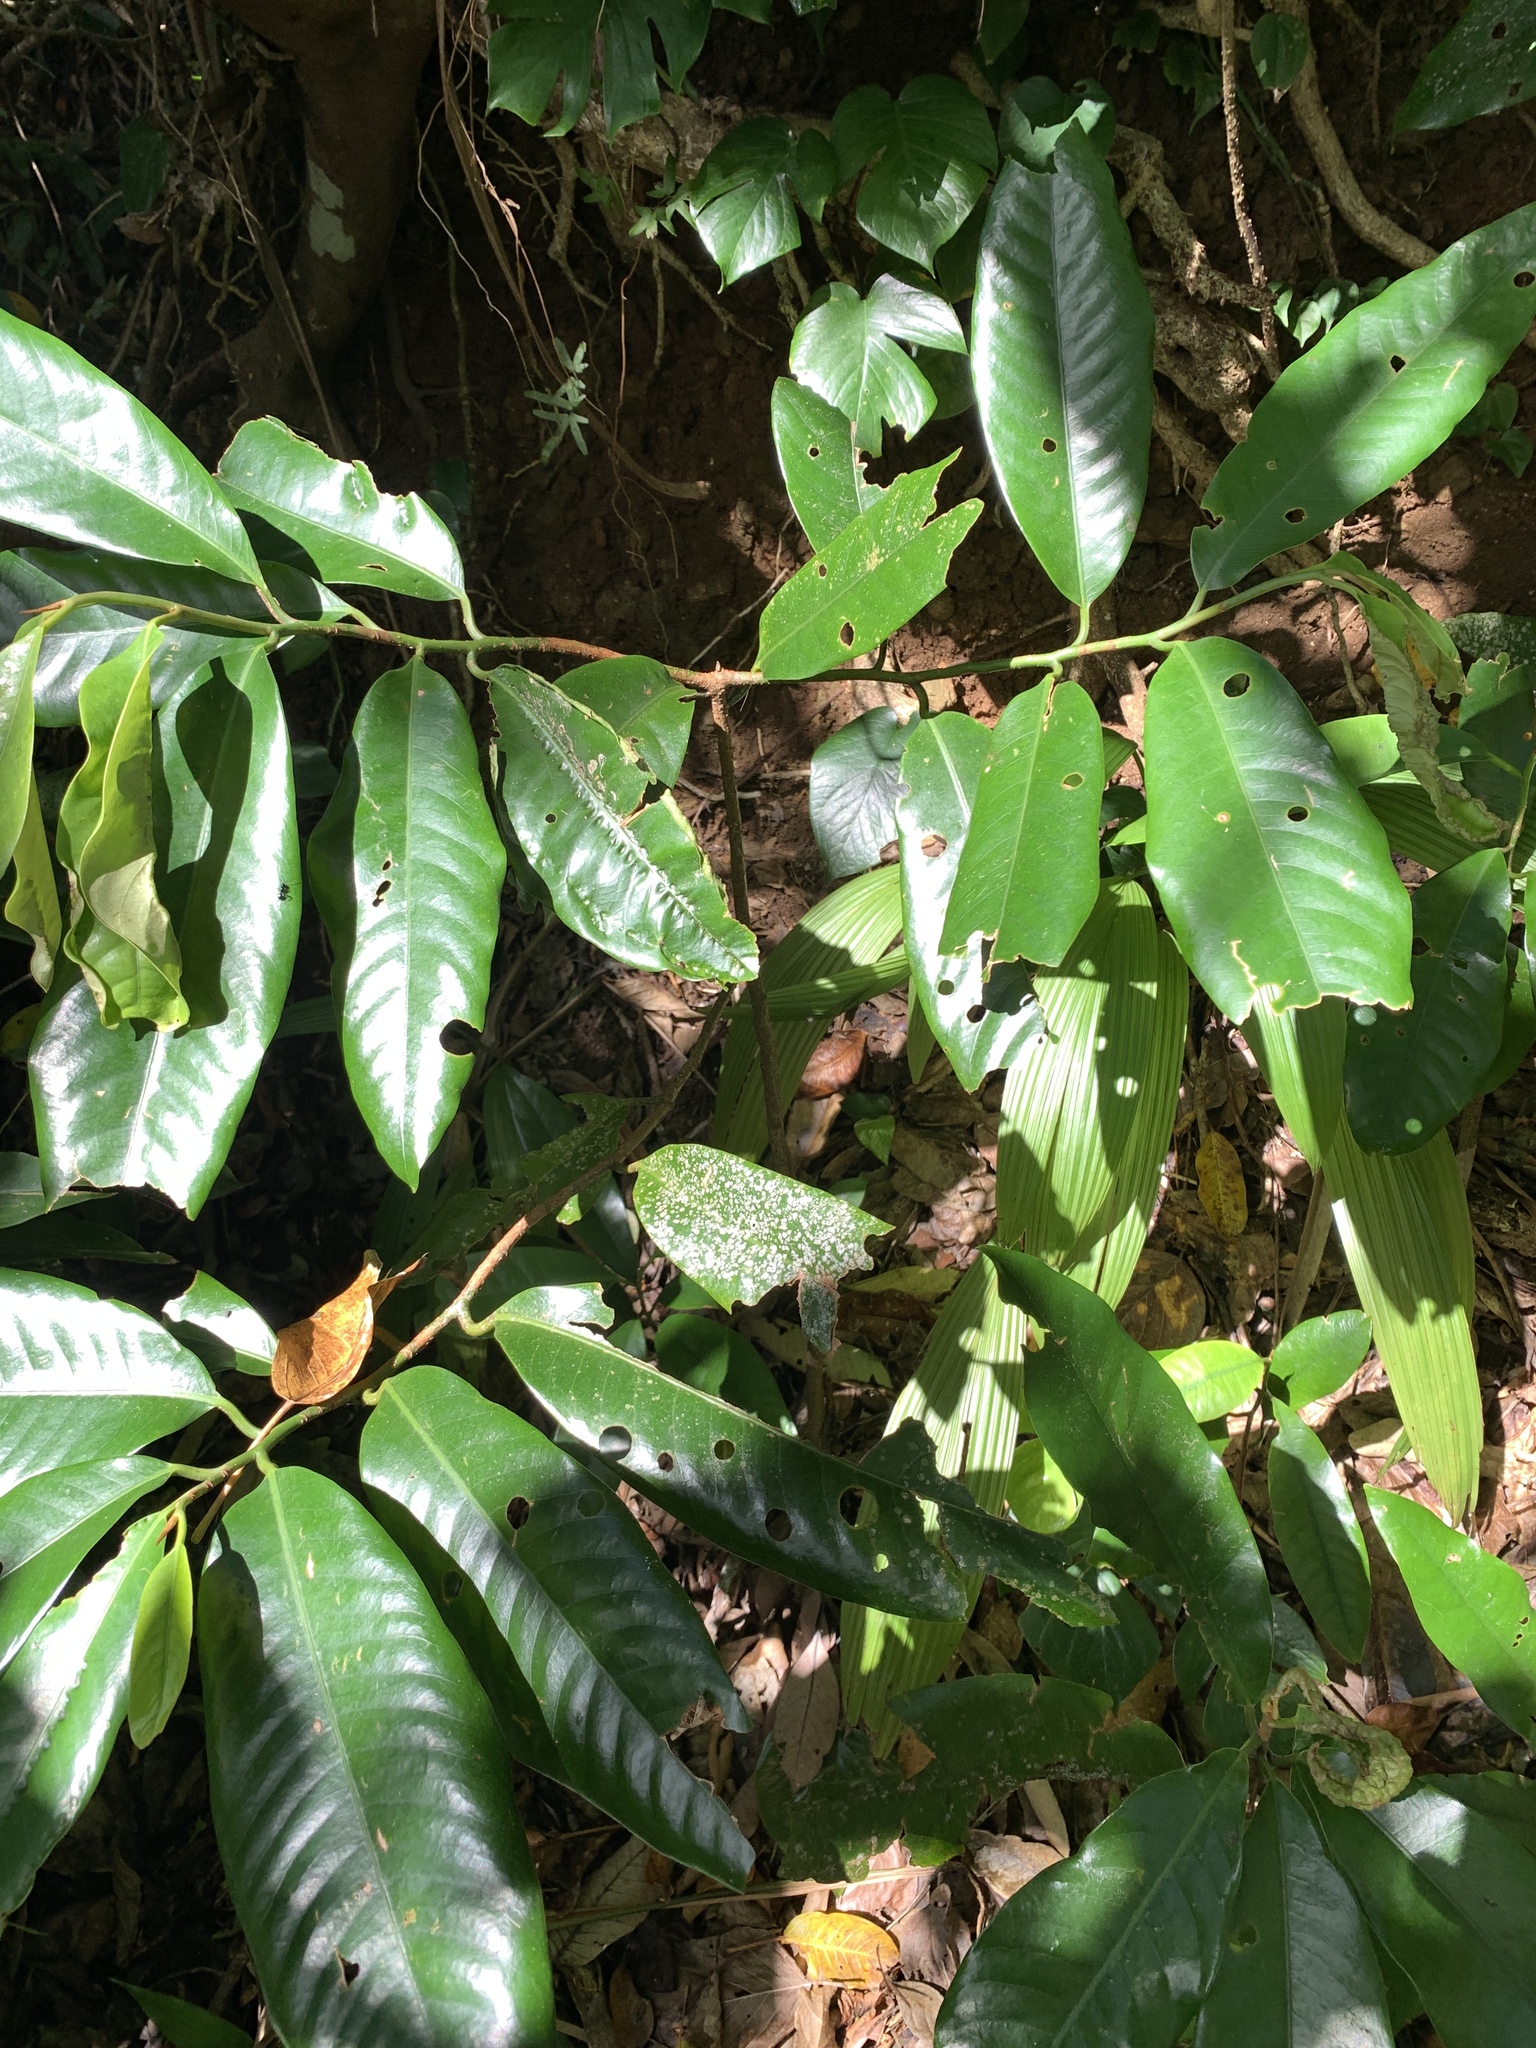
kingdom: Plantae
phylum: Tracheophyta
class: Magnoliopsida
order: Magnoliales
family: Myristicaceae
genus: Myristica
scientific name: Myristica ceylanica
